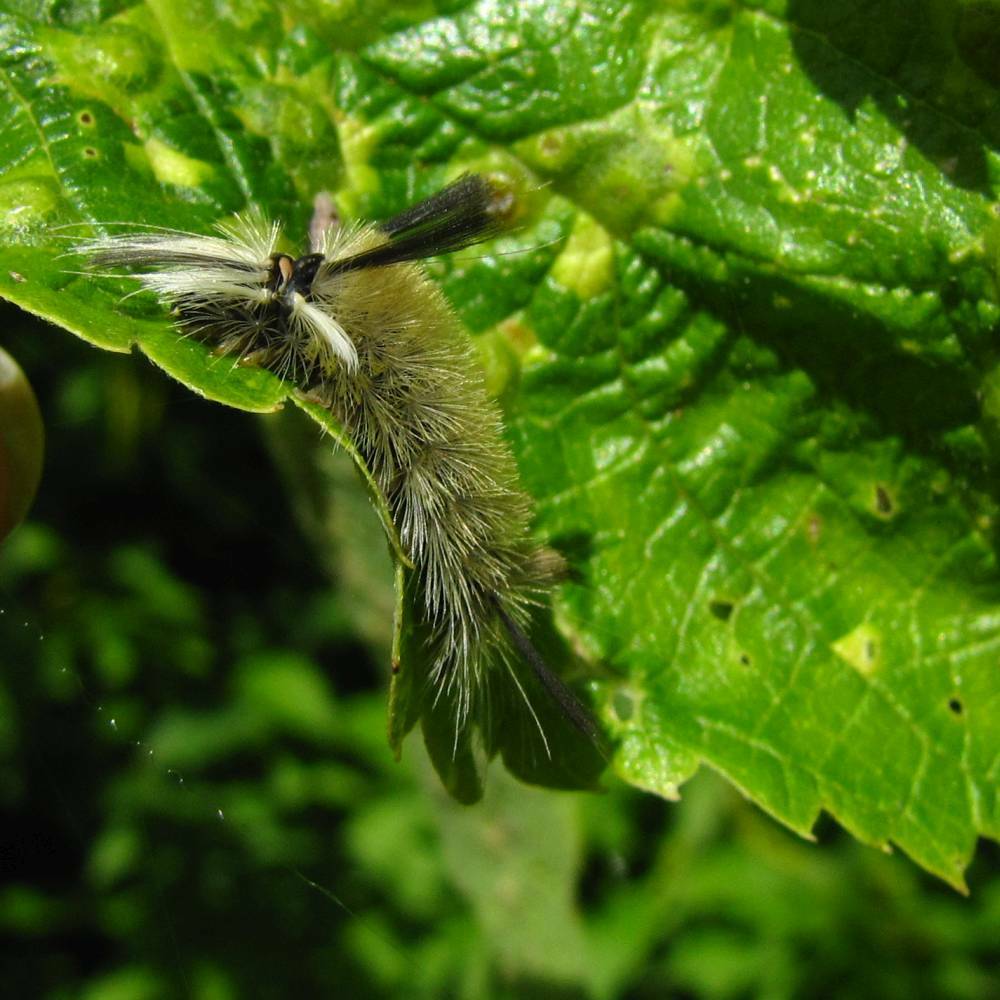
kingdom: Animalia
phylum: Arthropoda
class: Insecta
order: Lepidoptera
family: Erebidae
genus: Halysidota
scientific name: Halysidota tessellaris
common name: Banded tussock moth
